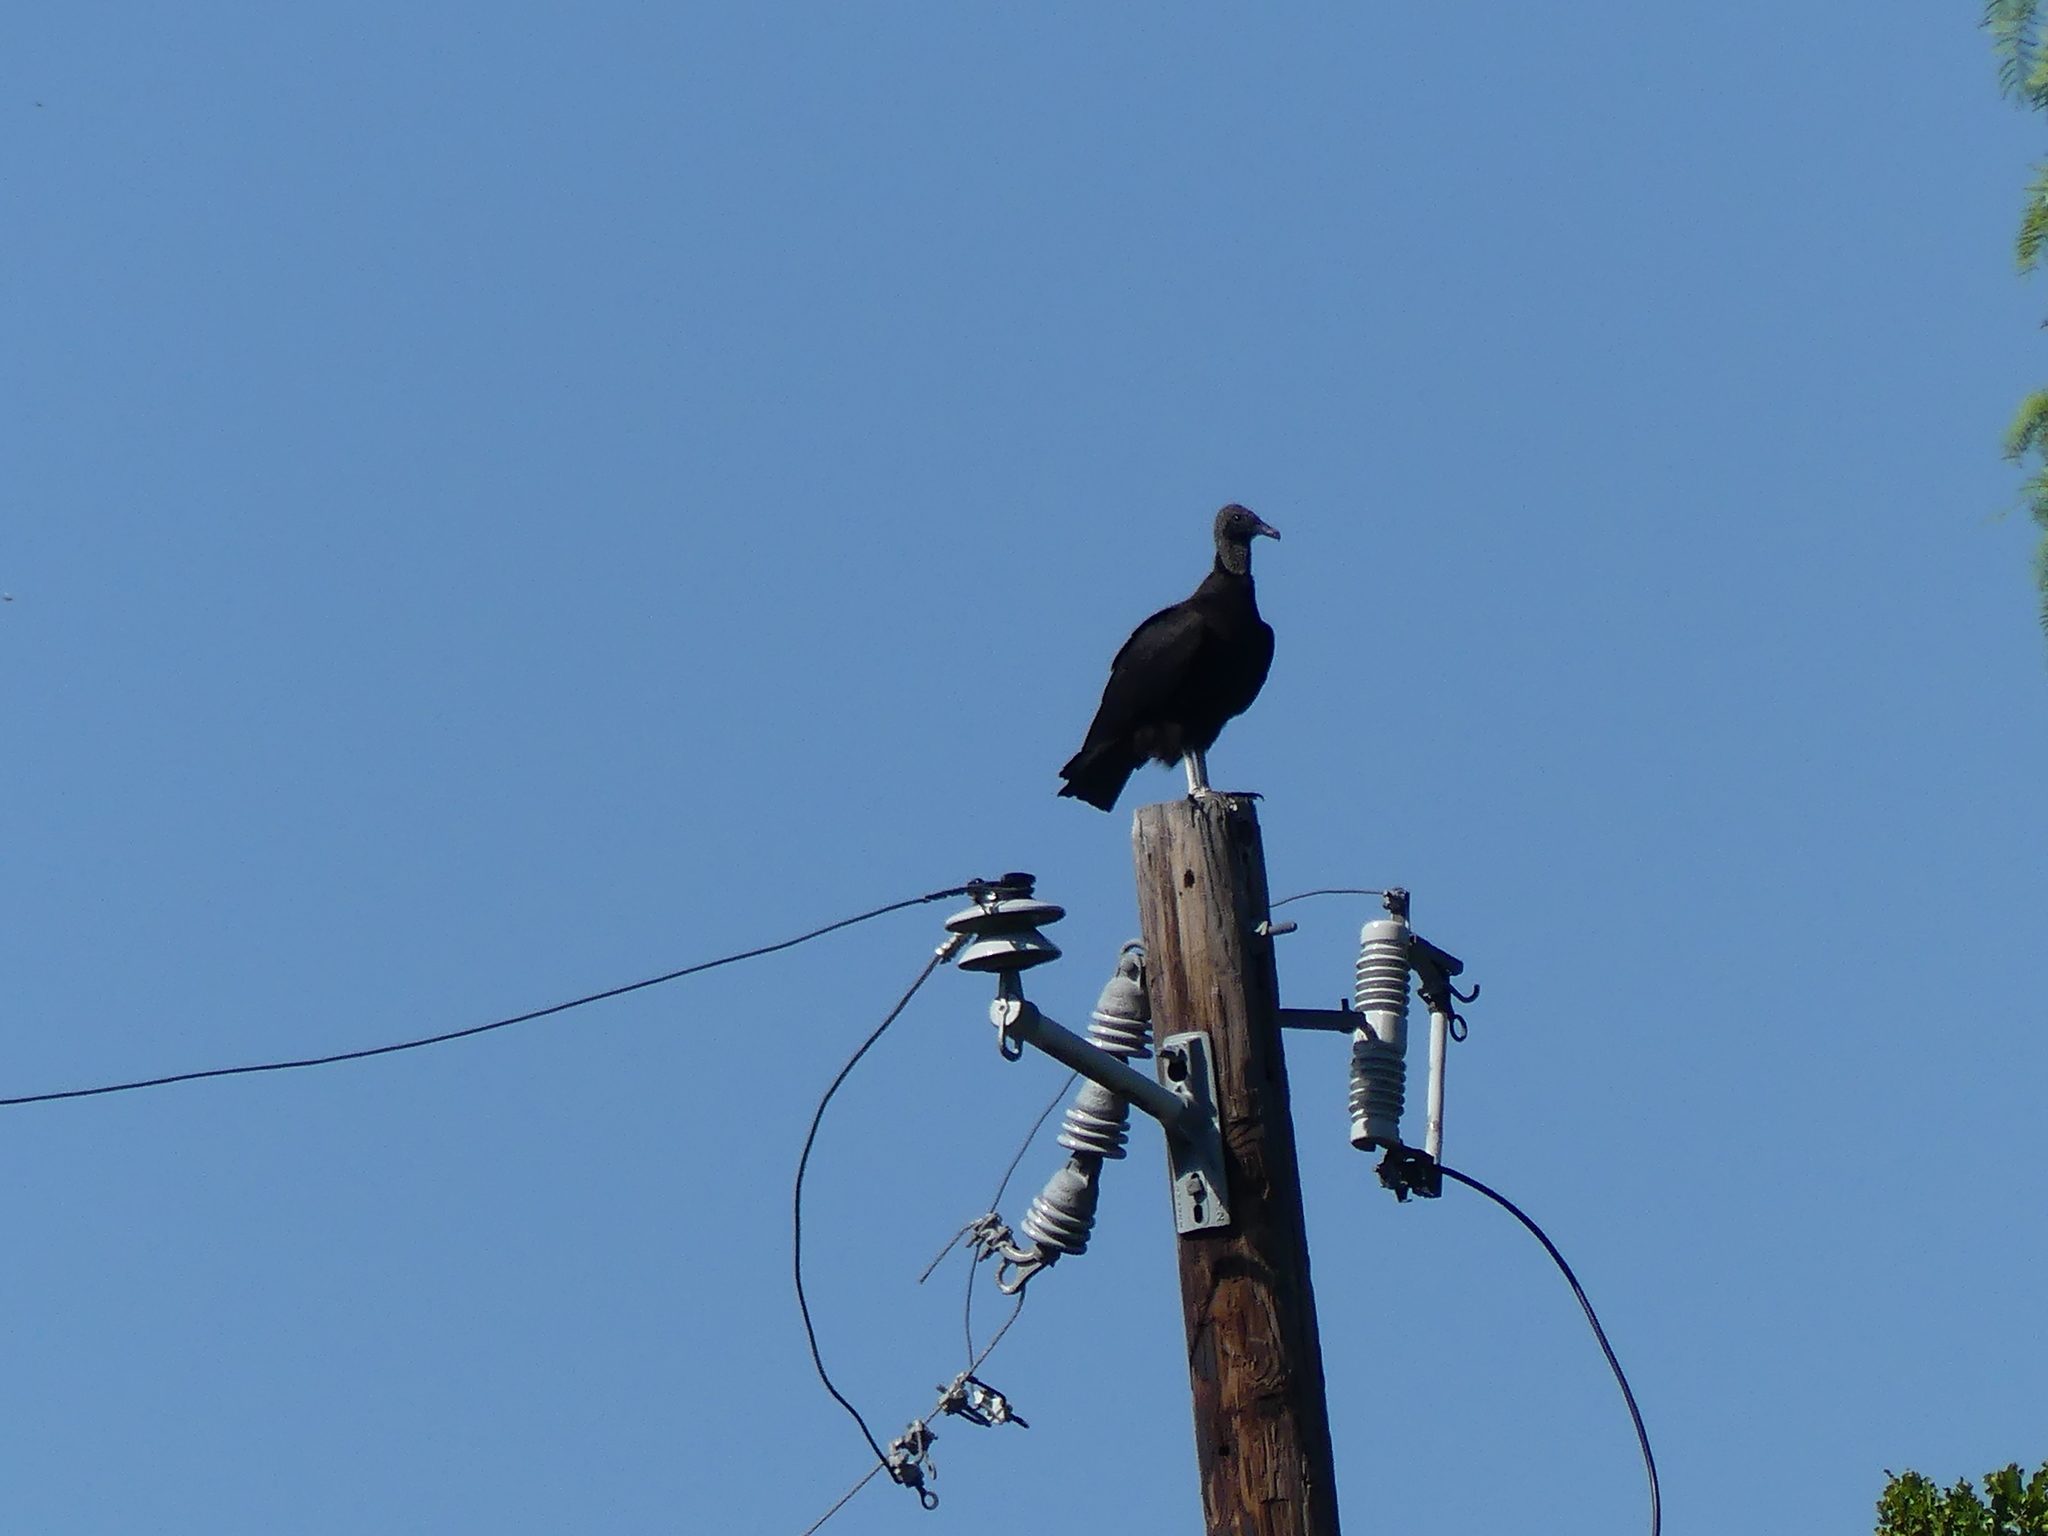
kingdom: Animalia
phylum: Chordata
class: Aves
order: Accipitriformes
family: Cathartidae
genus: Coragyps
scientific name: Coragyps atratus
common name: Black vulture
